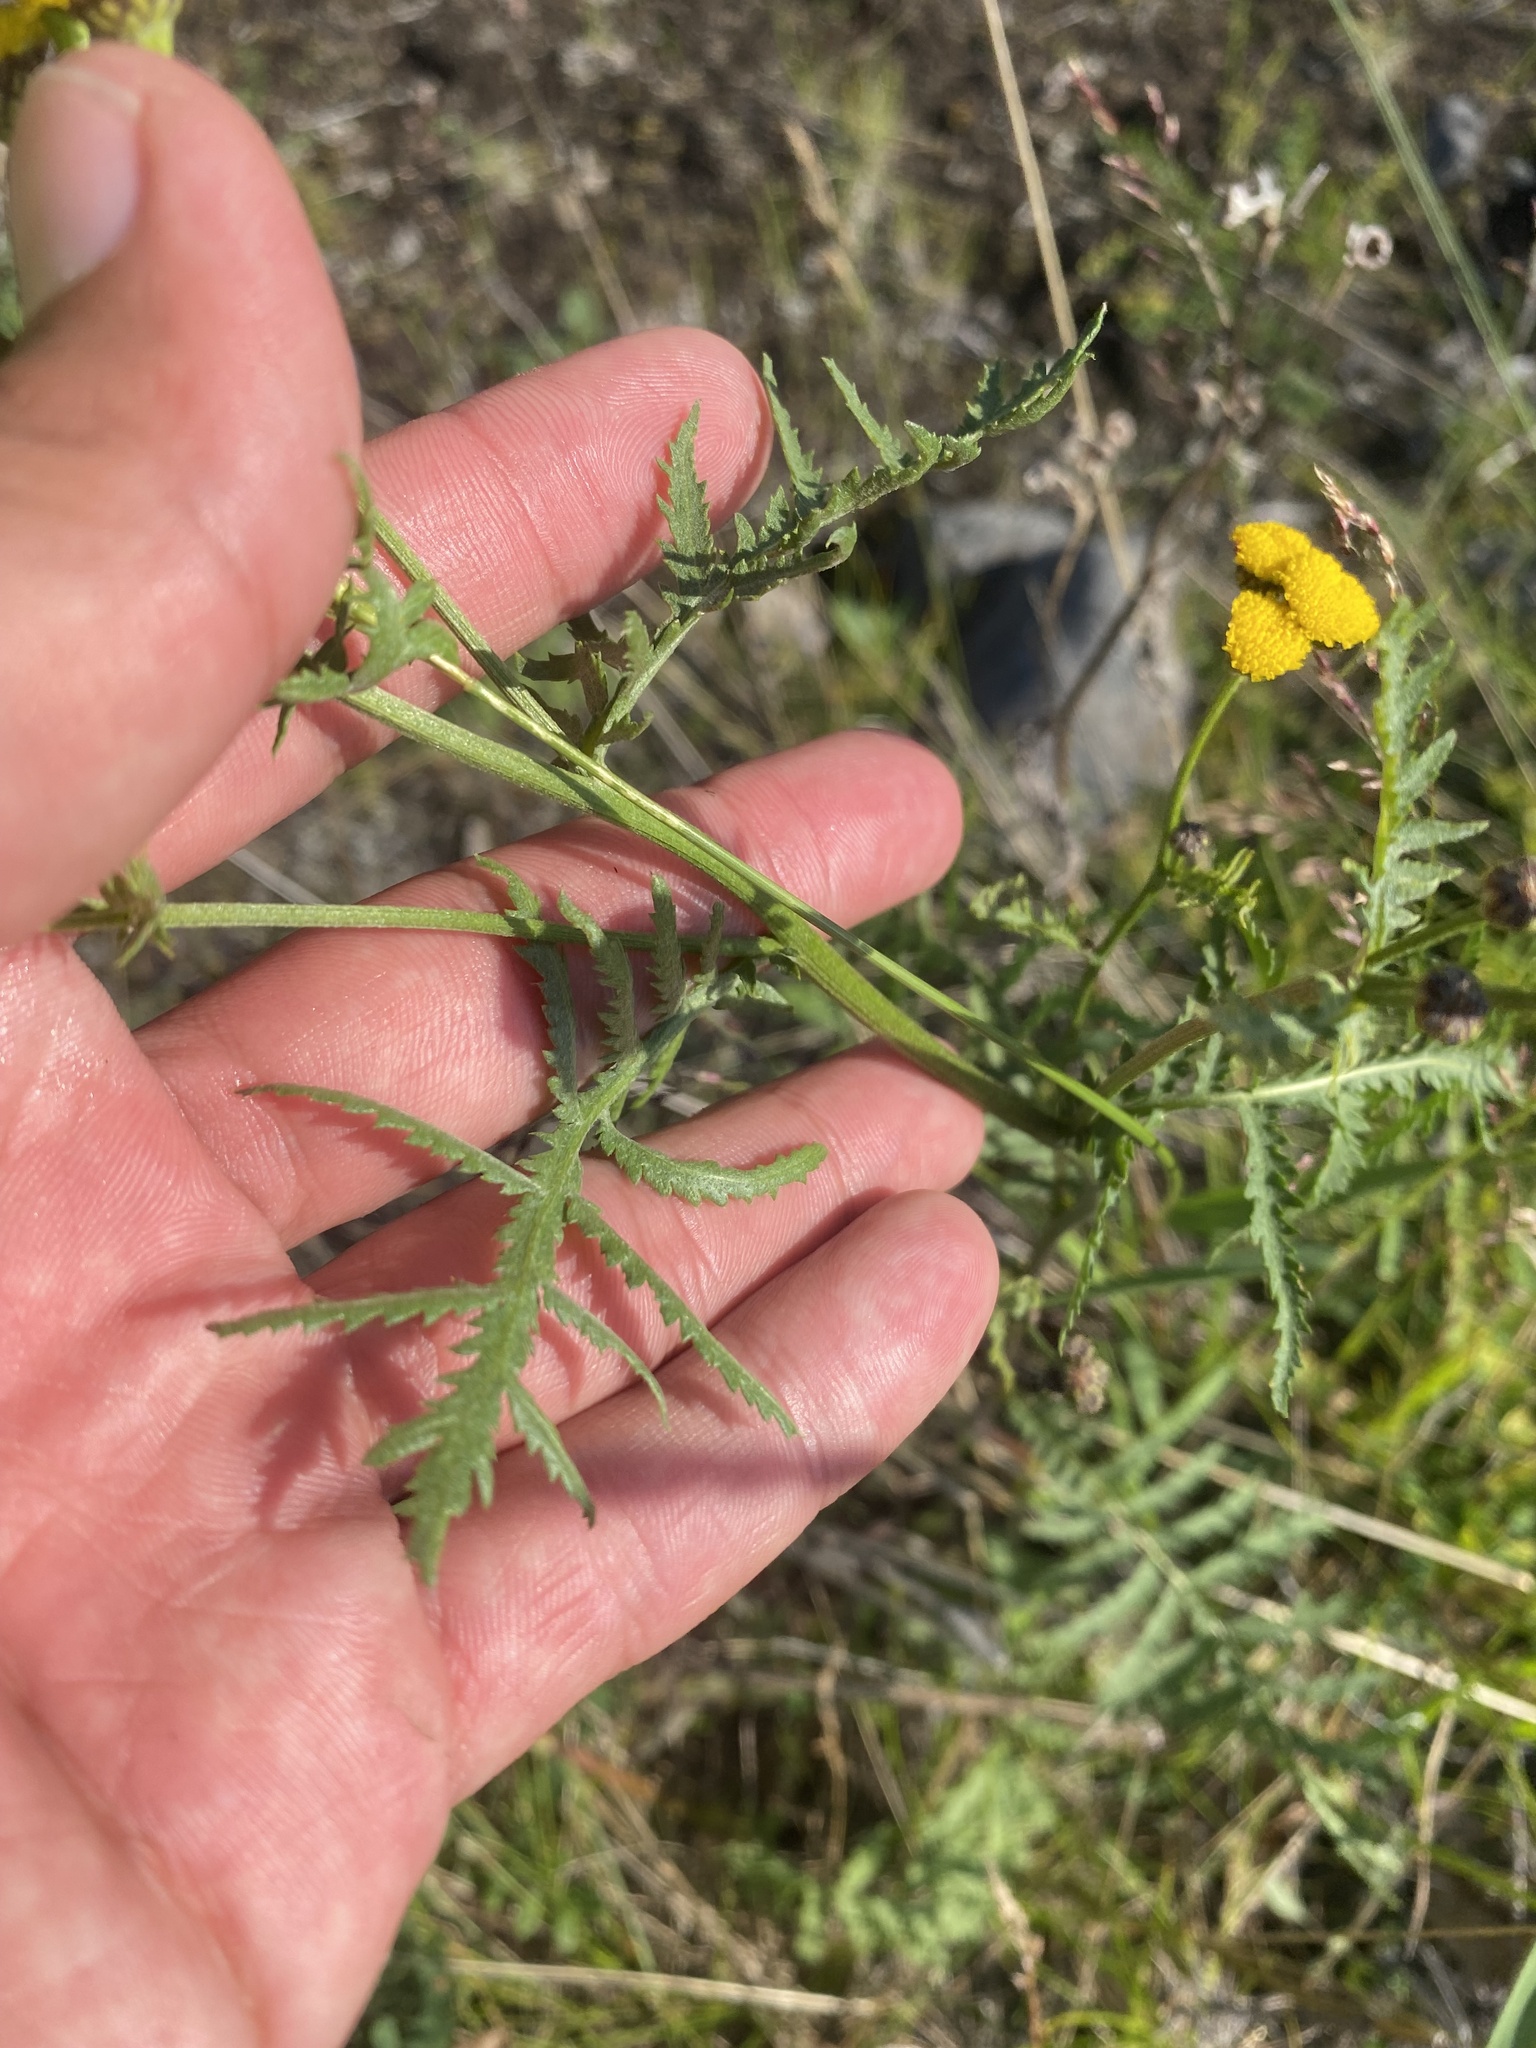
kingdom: Plantae
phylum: Tracheophyta
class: Magnoliopsida
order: Asterales
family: Asteraceae
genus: Tanacetum
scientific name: Tanacetum vulgare
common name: Common tansy
